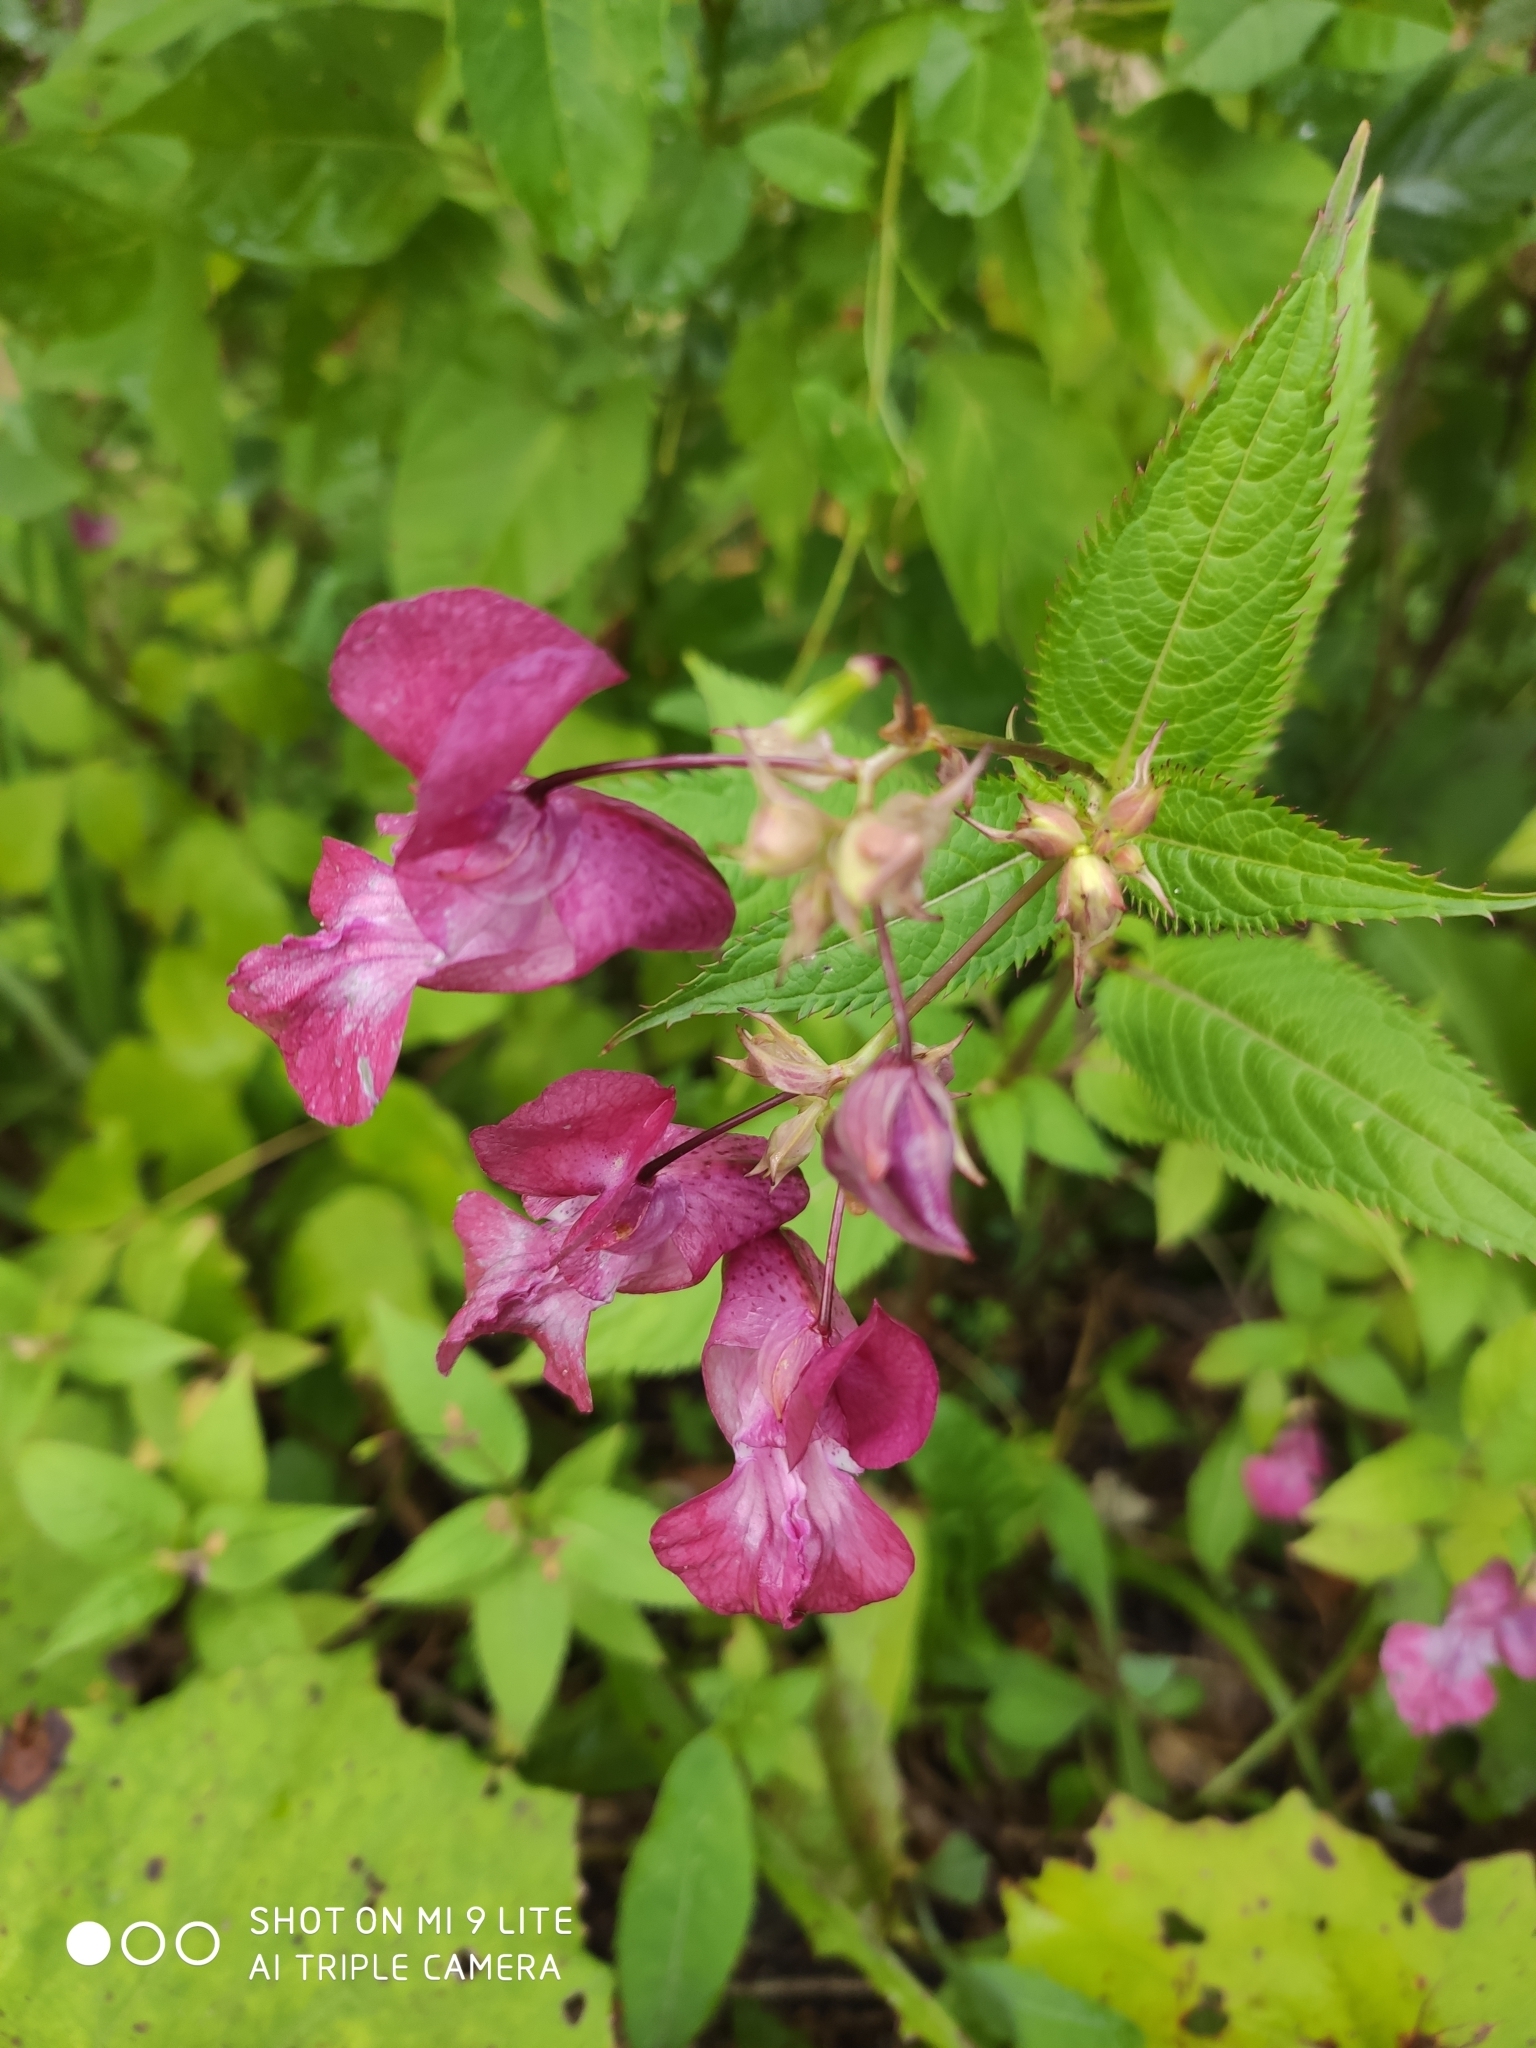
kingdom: Plantae
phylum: Tracheophyta
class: Magnoliopsida
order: Ericales
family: Balsaminaceae
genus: Impatiens
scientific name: Impatiens glandulifera
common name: Himalayan balsam
